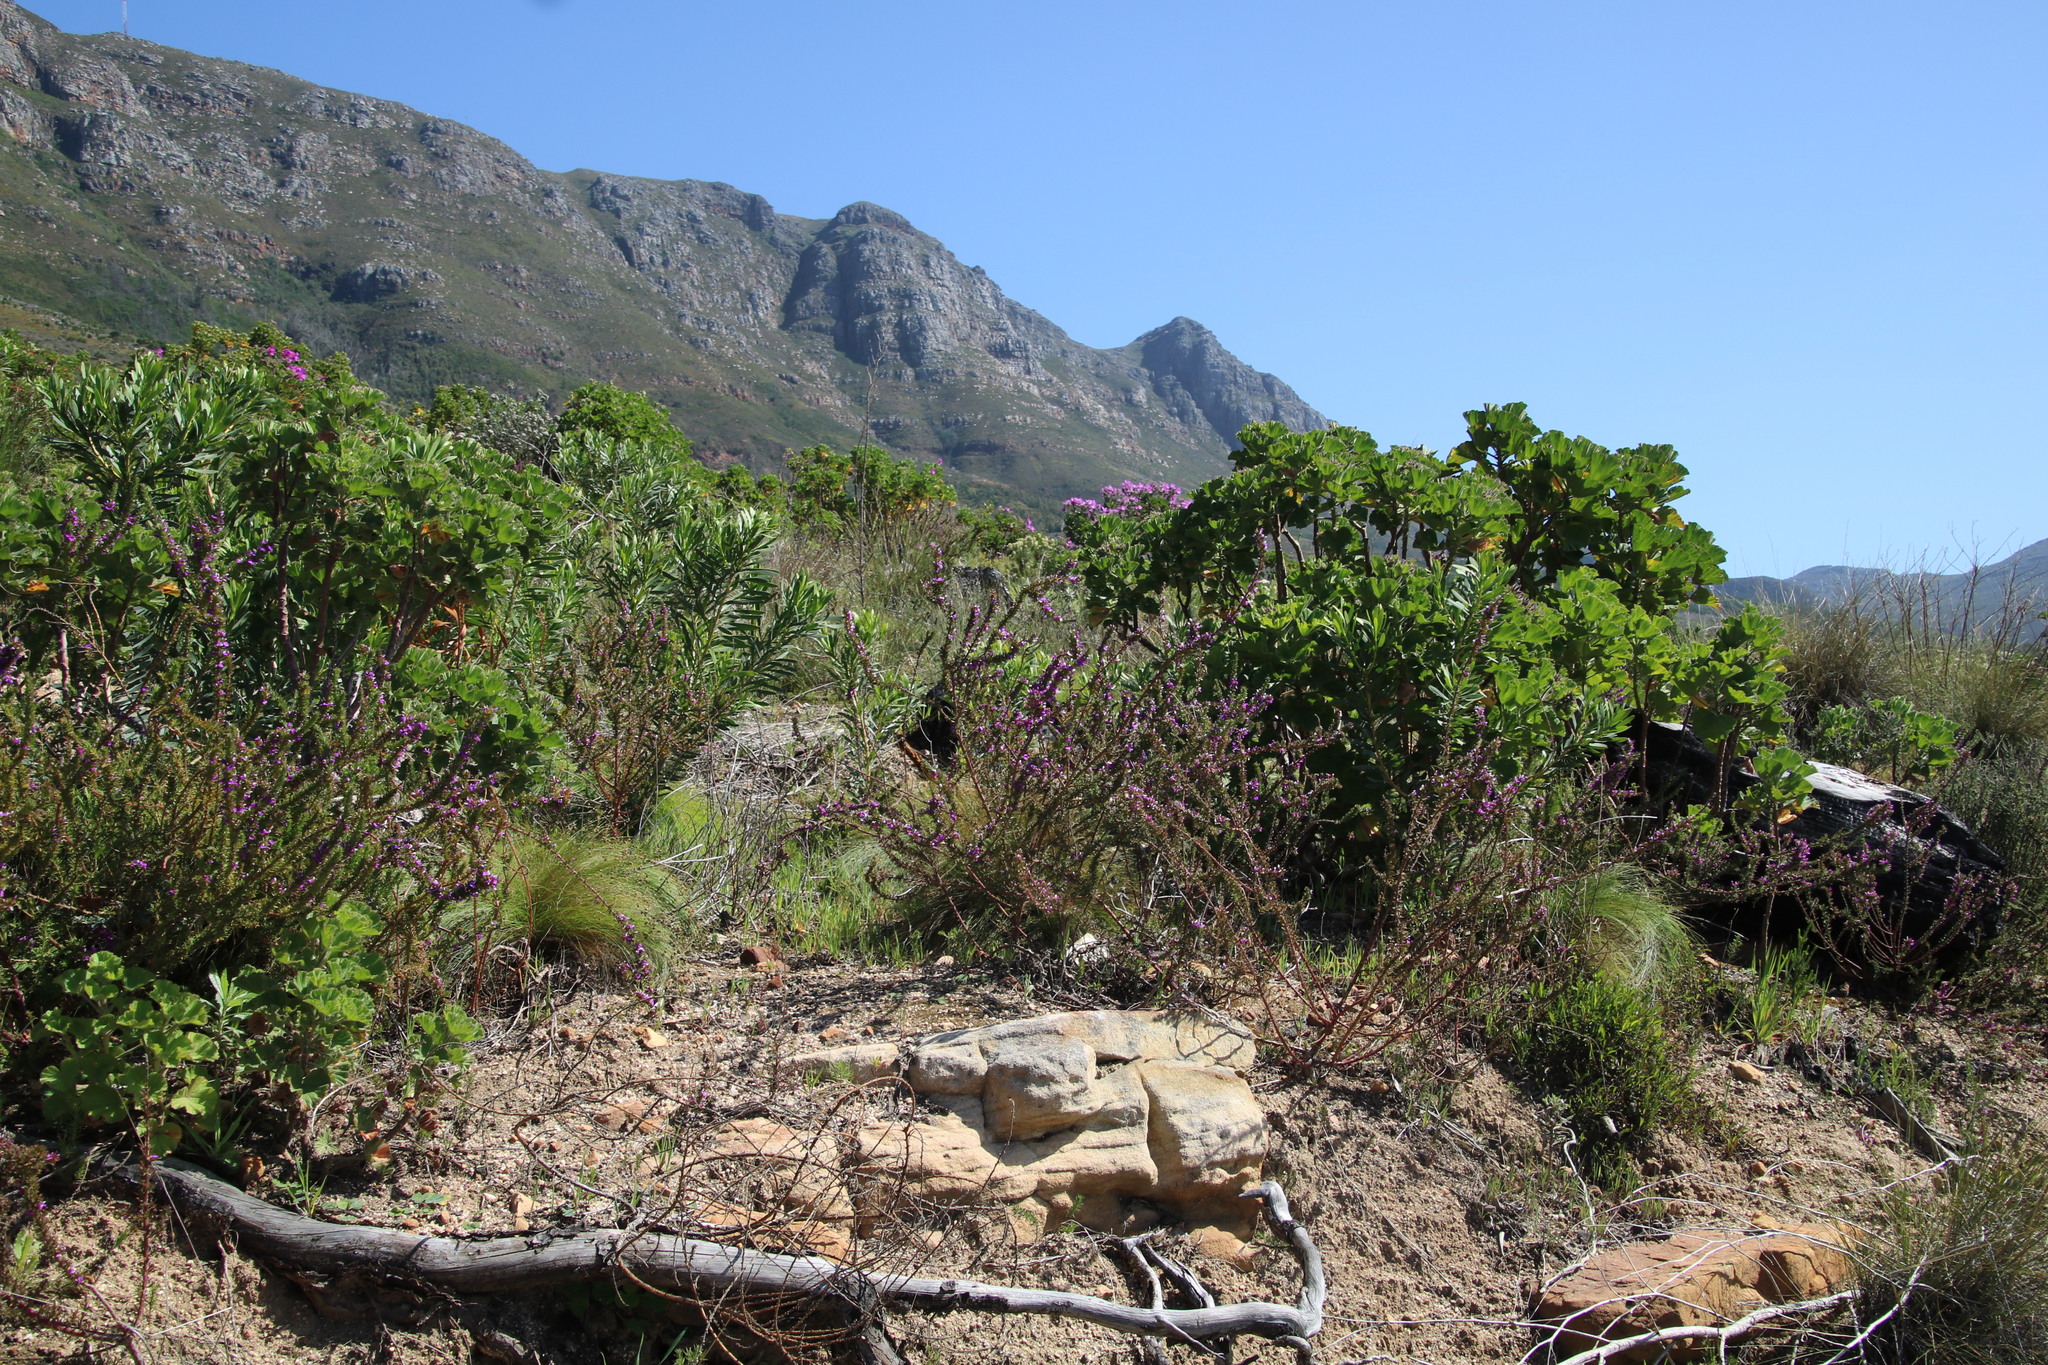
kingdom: Plantae
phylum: Tracheophyta
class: Magnoliopsida
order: Fabales
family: Polygalaceae
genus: Muraltia
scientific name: Muraltia heisteria
